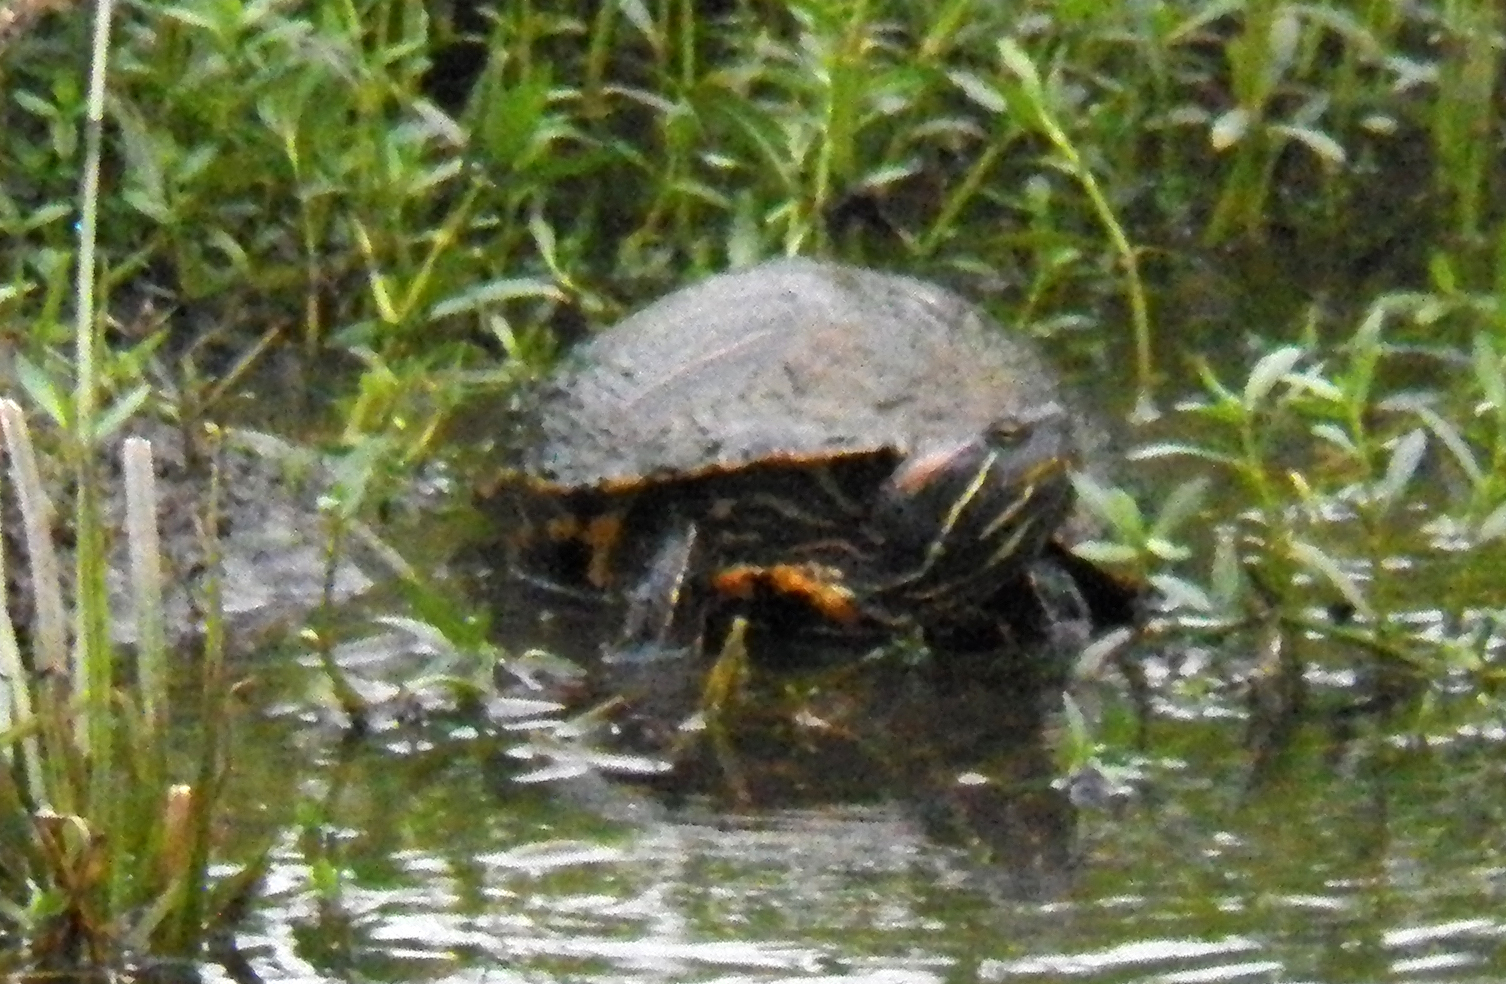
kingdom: Animalia
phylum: Chordata
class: Testudines
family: Emydidae
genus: Trachemys
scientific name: Trachemys scripta
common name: Slider
